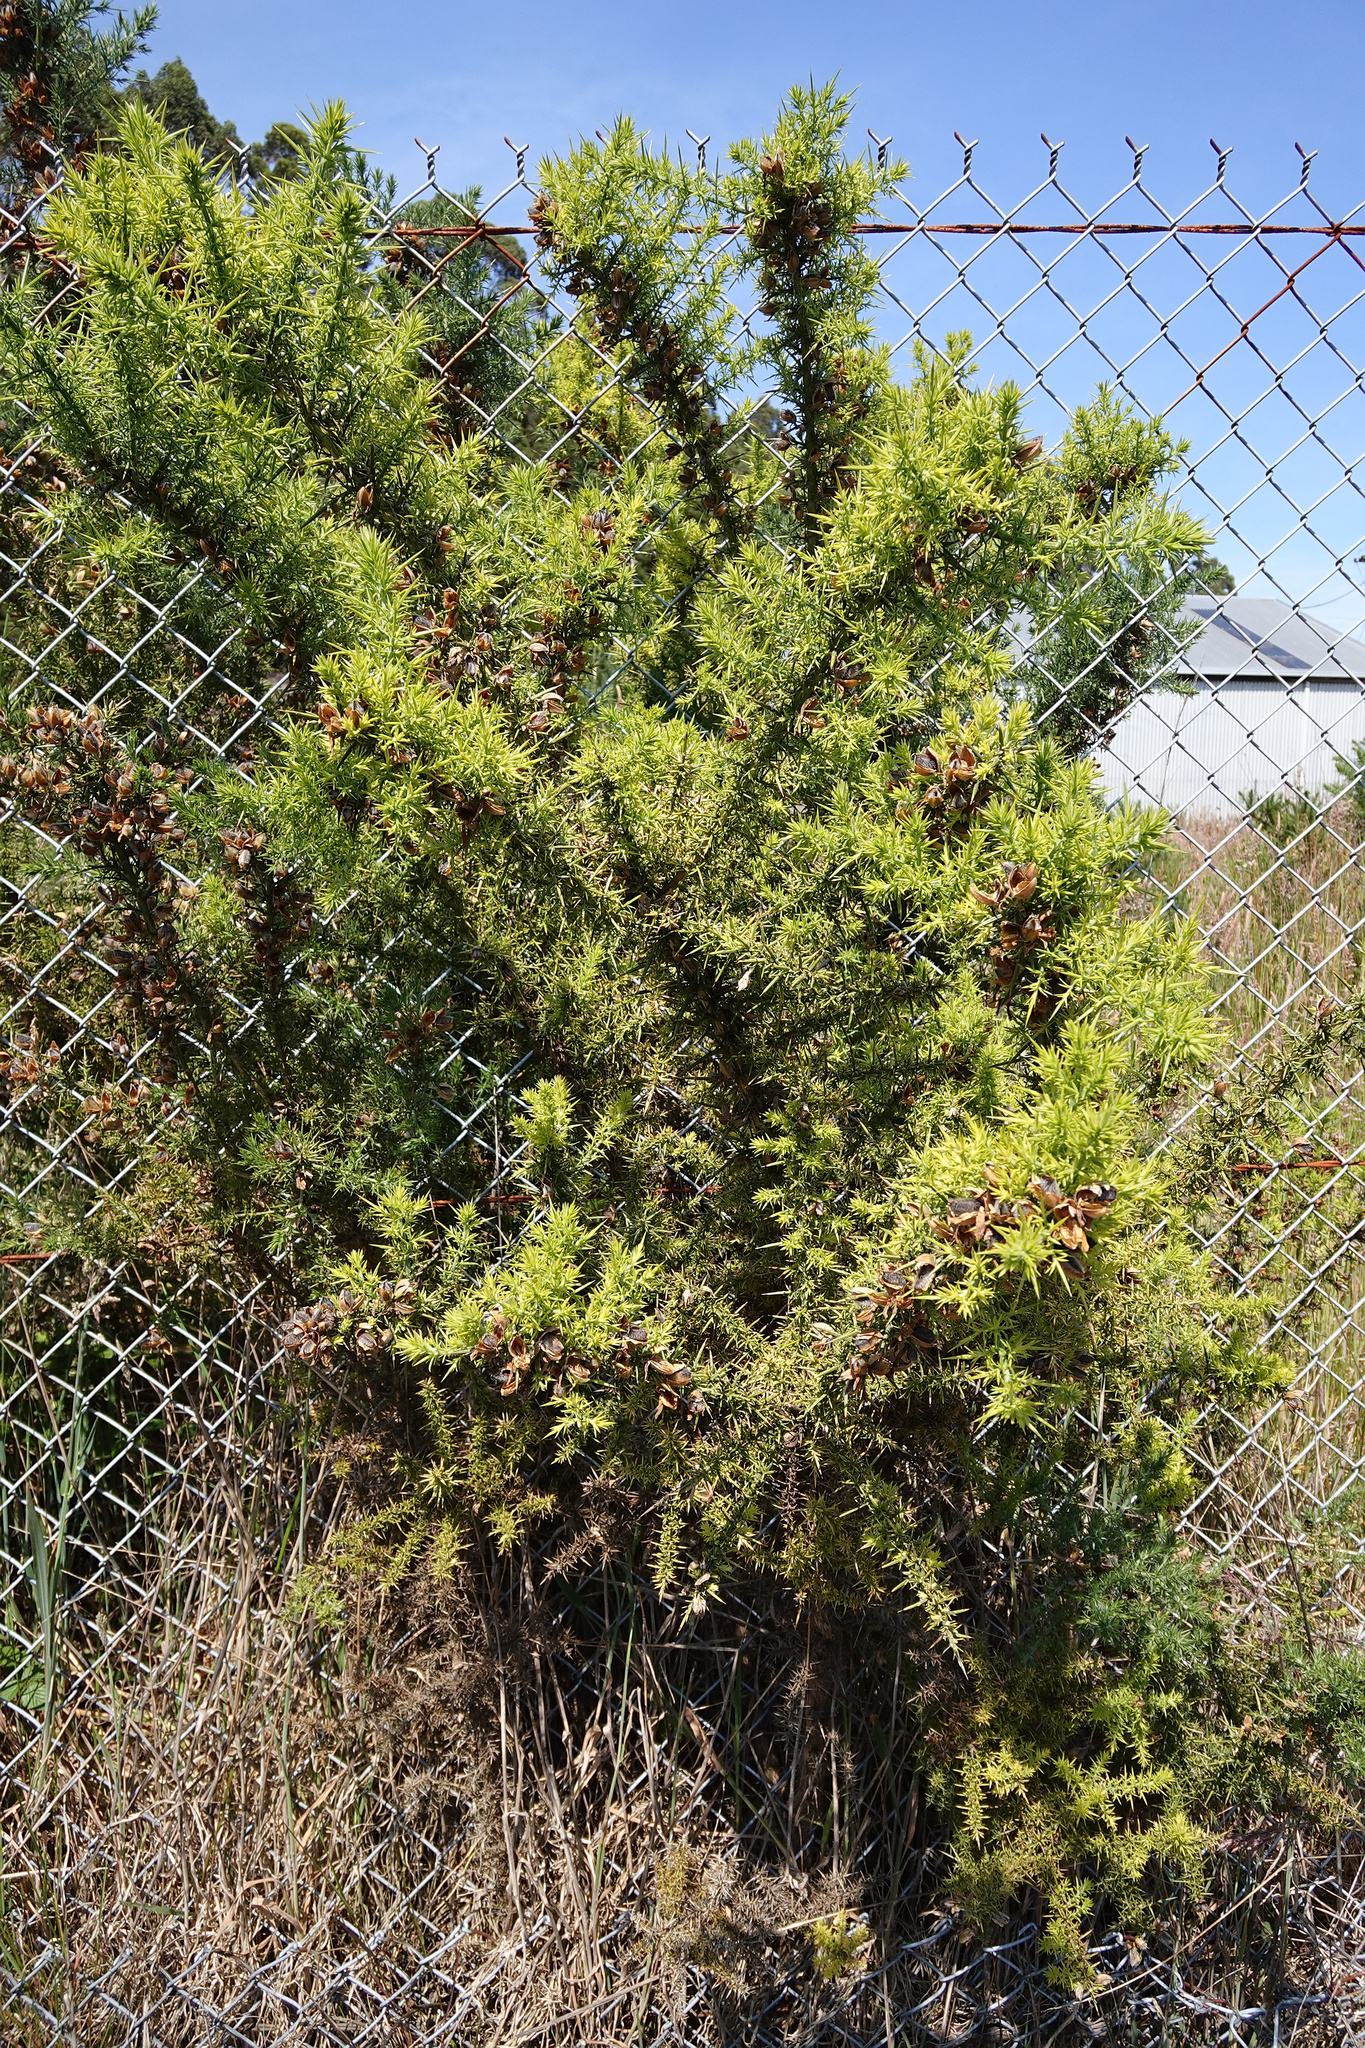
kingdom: Plantae
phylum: Tracheophyta
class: Magnoliopsida
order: Fabales
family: Fabaceae
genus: Ulex
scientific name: Ulex europaeus
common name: Common gorse
